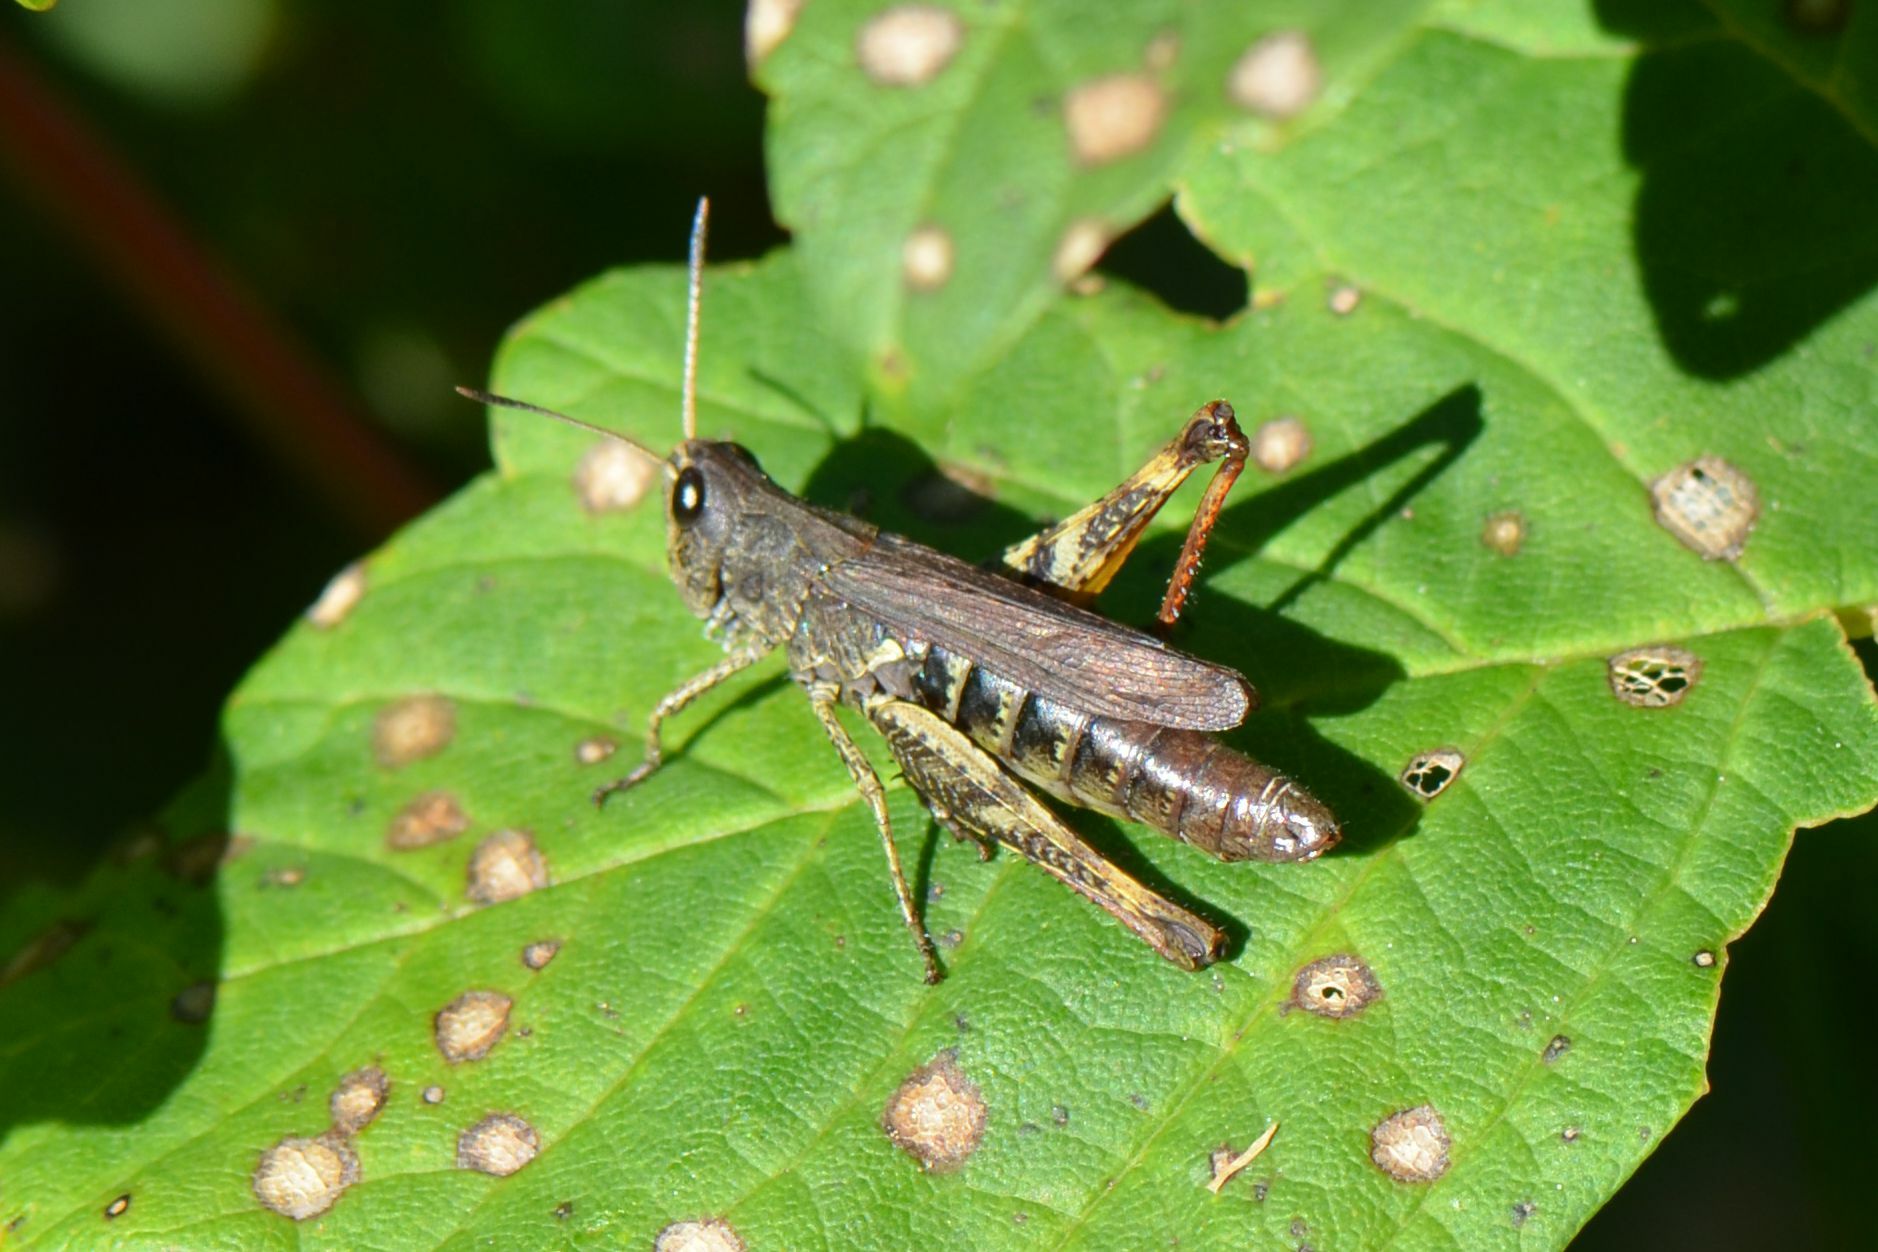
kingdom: Animalia
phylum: Arthropoda
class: Insecta
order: Orthoptera
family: Acrididae
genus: Gomphocerippus
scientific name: Gomphocerippus rufus
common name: Rufous grasshopper
